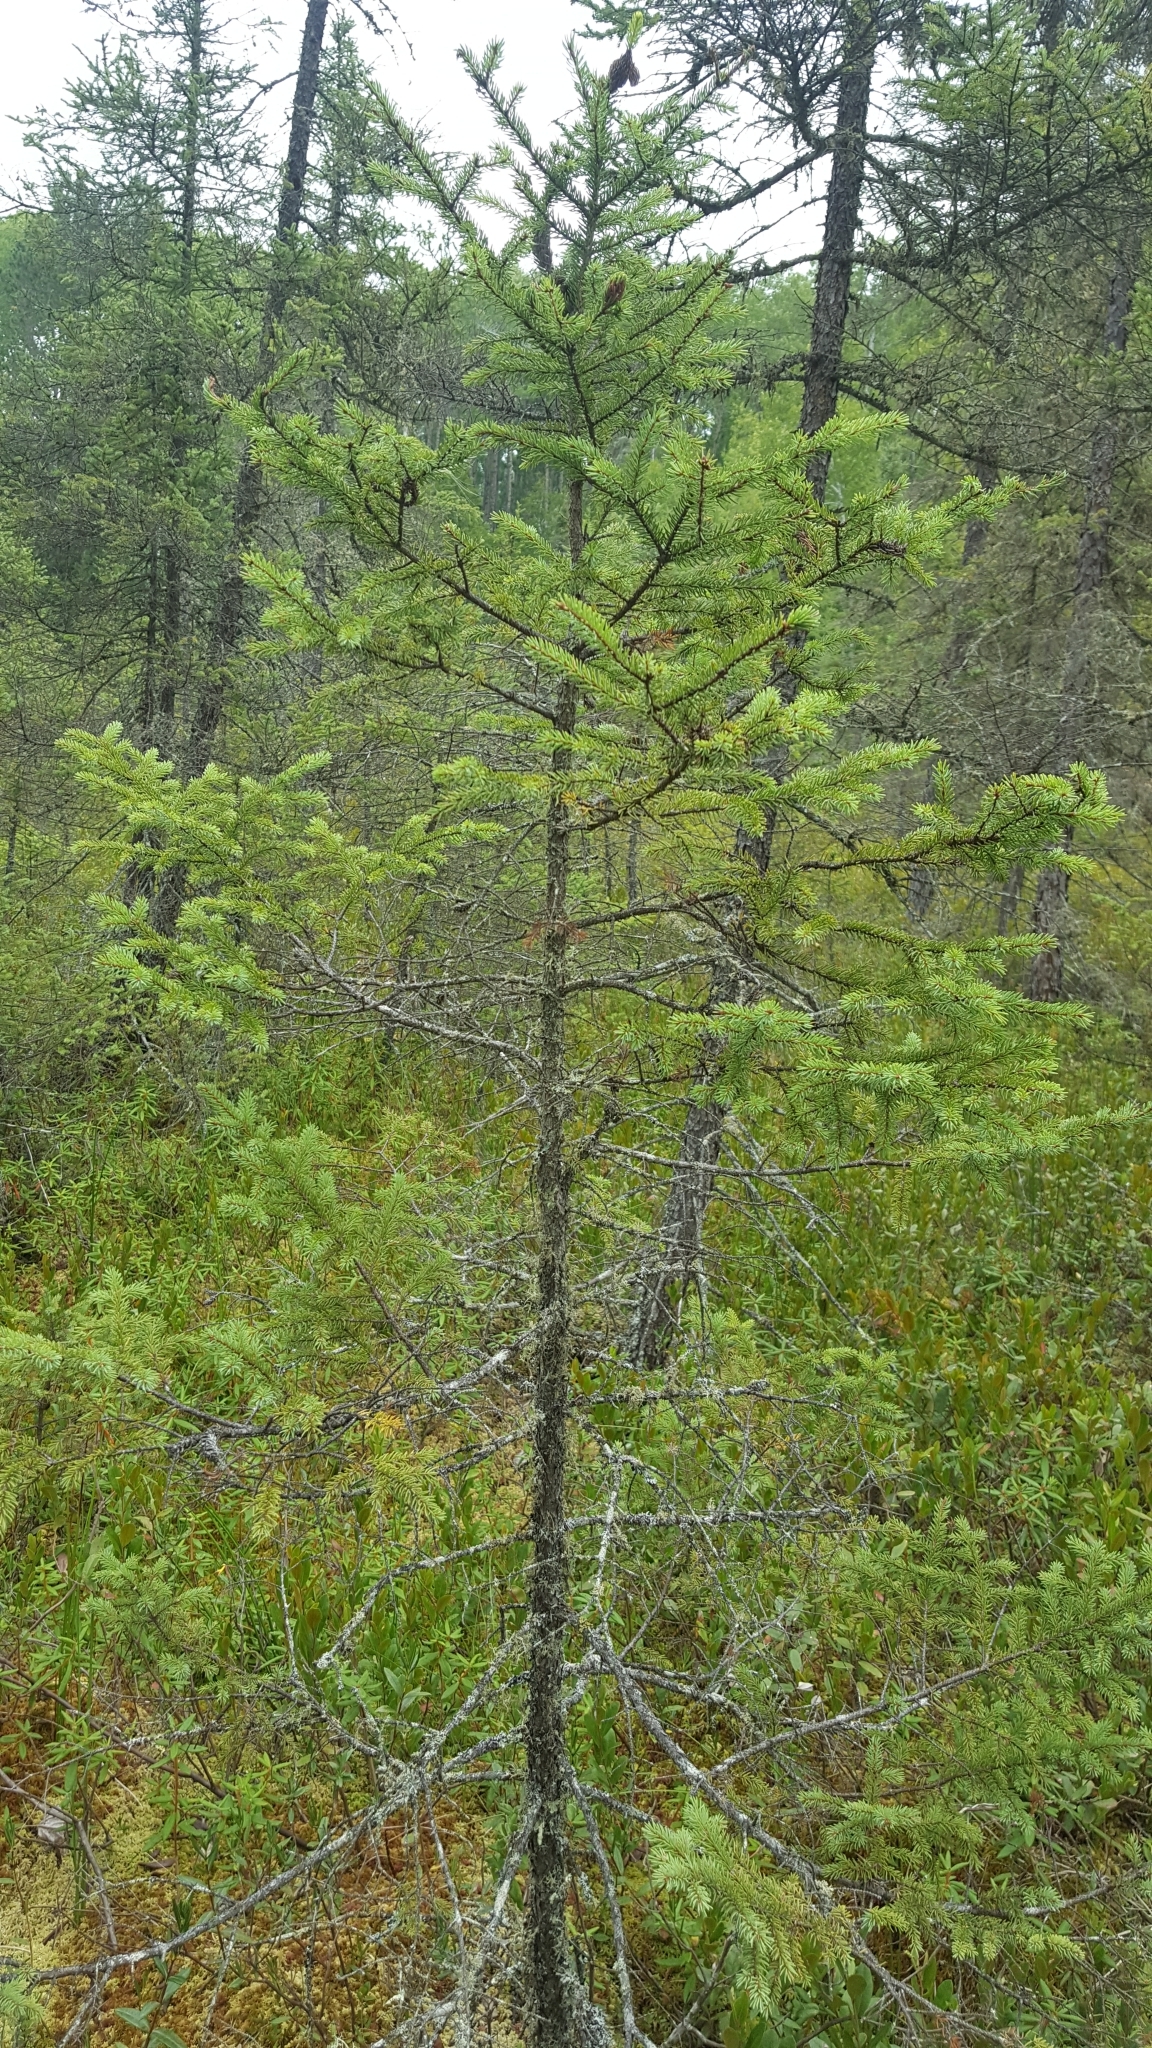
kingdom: Plantae
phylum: Tracheophyta
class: Pinopsida
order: Pinales
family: Pinaceae
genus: Picea
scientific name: Picea mariana
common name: Black spruce
